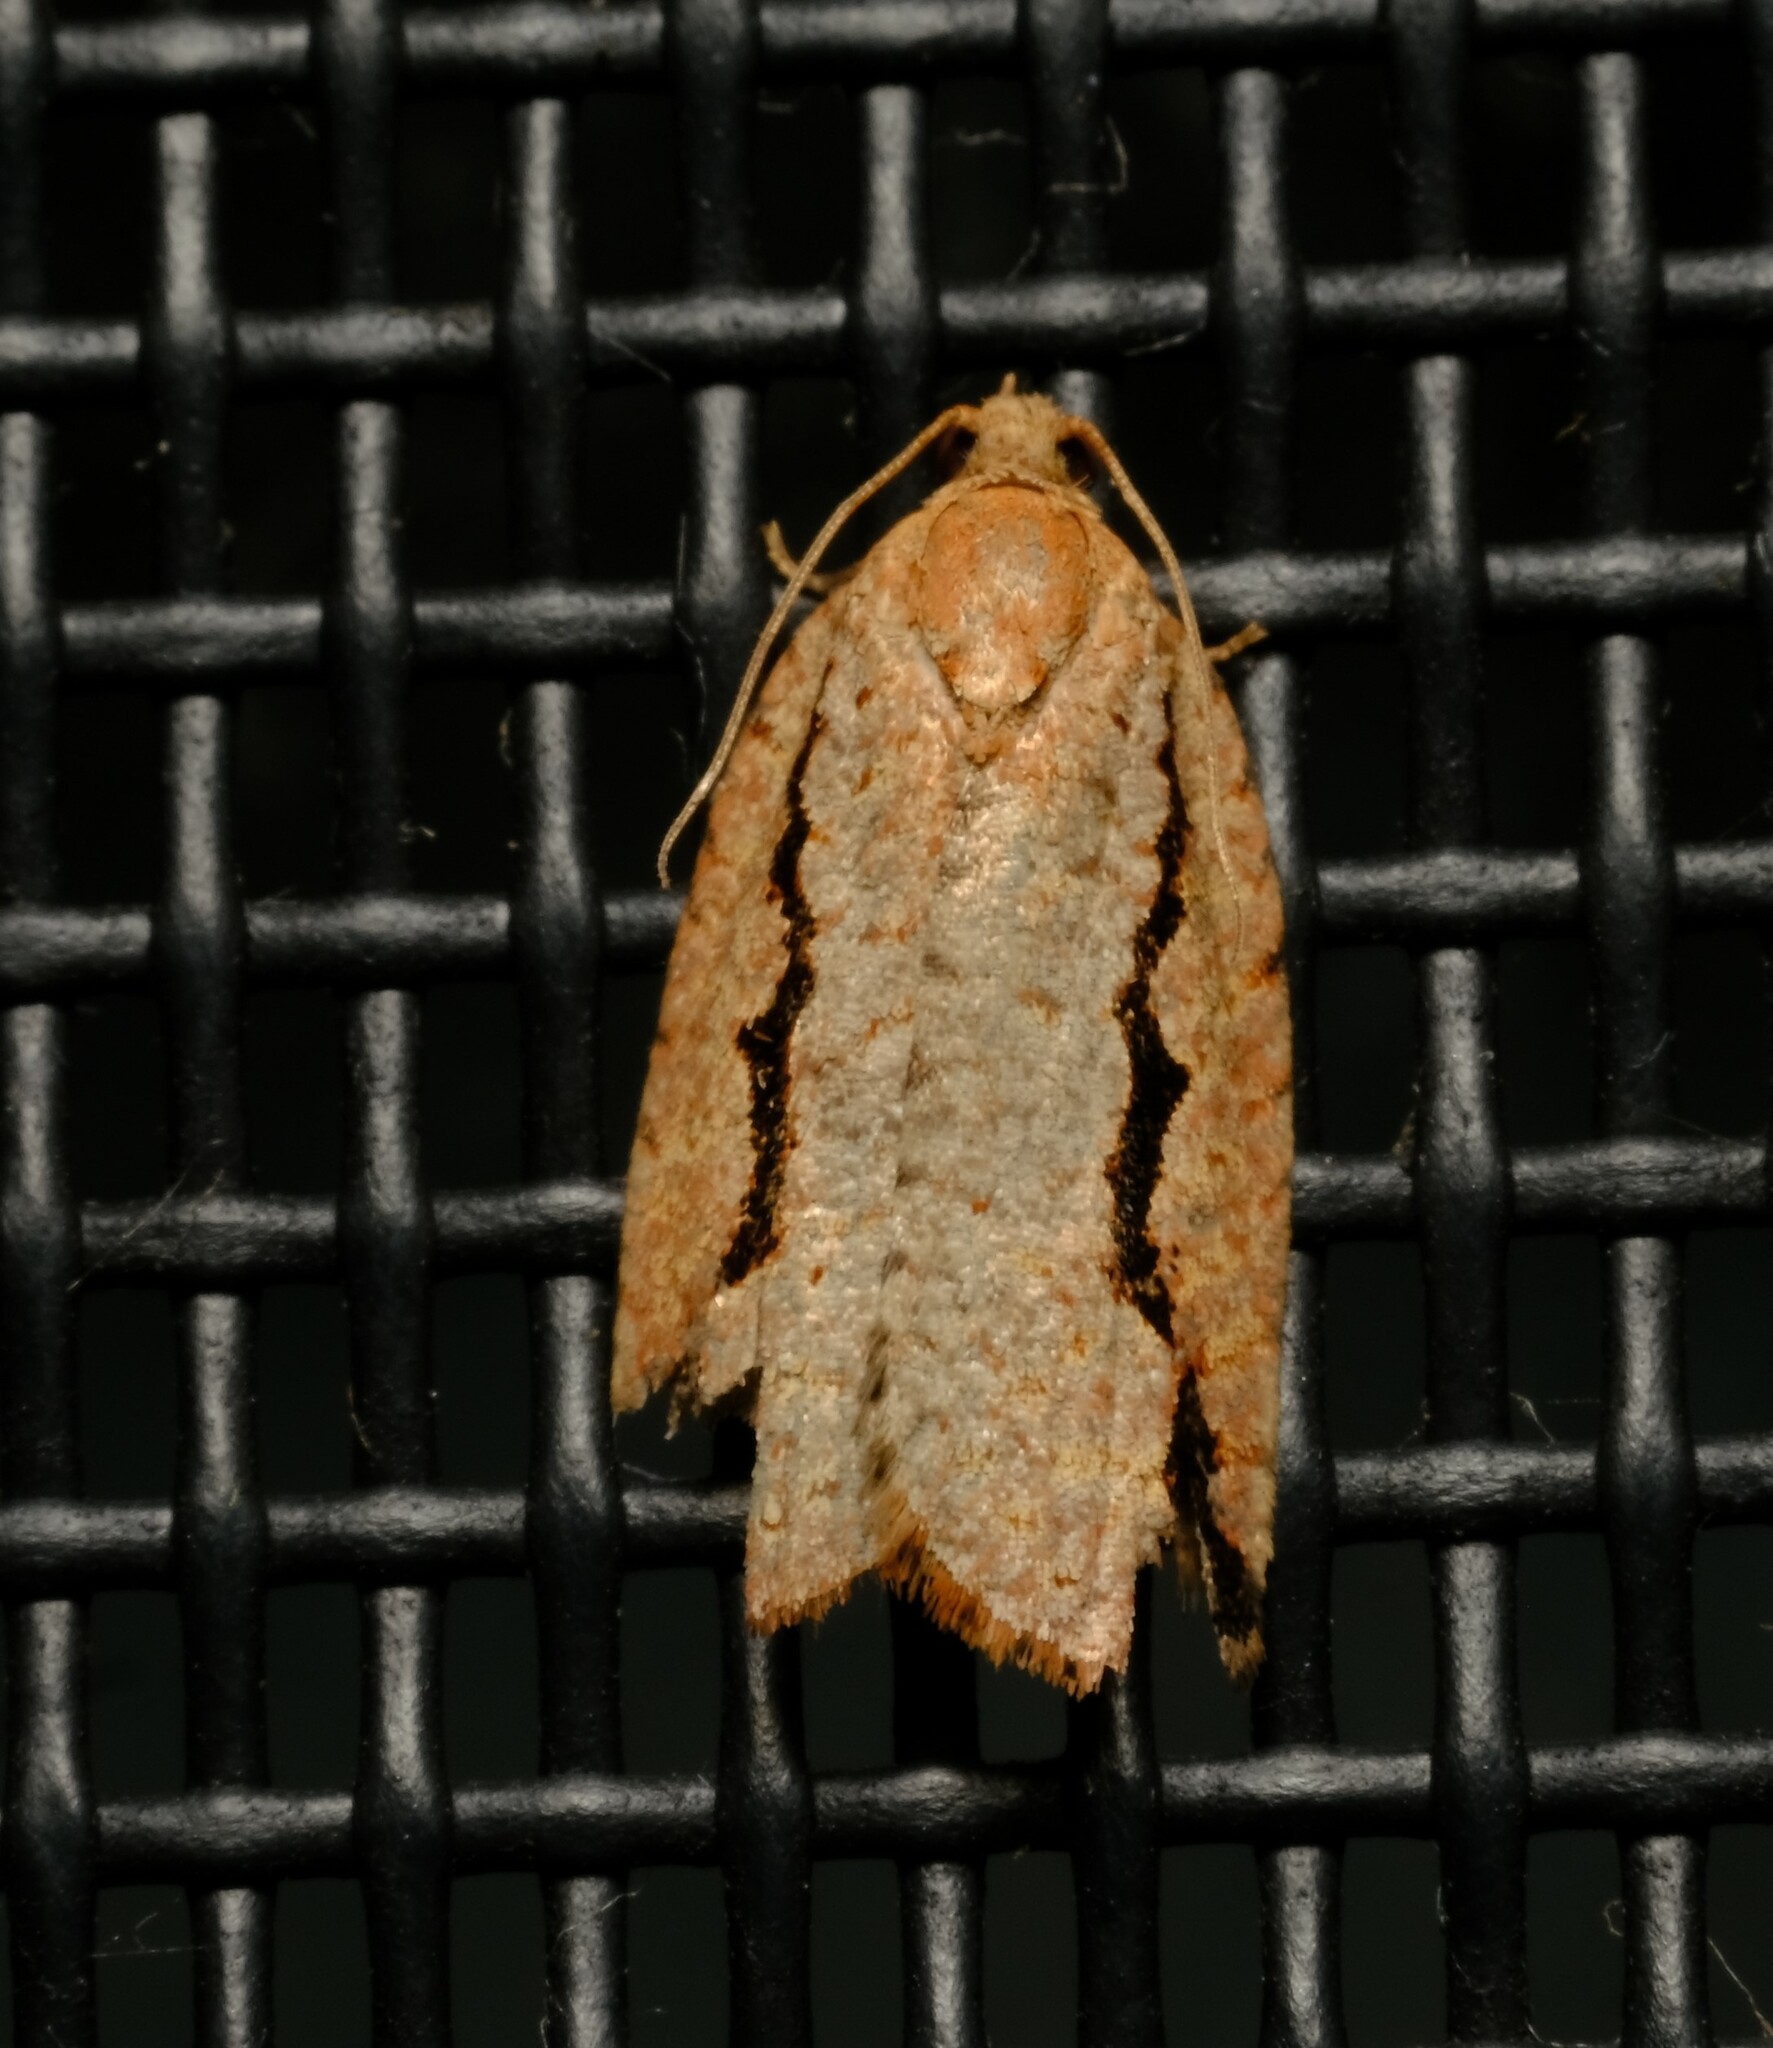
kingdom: Animalia
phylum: Arthropoda
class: Insecta
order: Lepidoptera
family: Tortricidae
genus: Meritastis
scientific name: Meritastis
